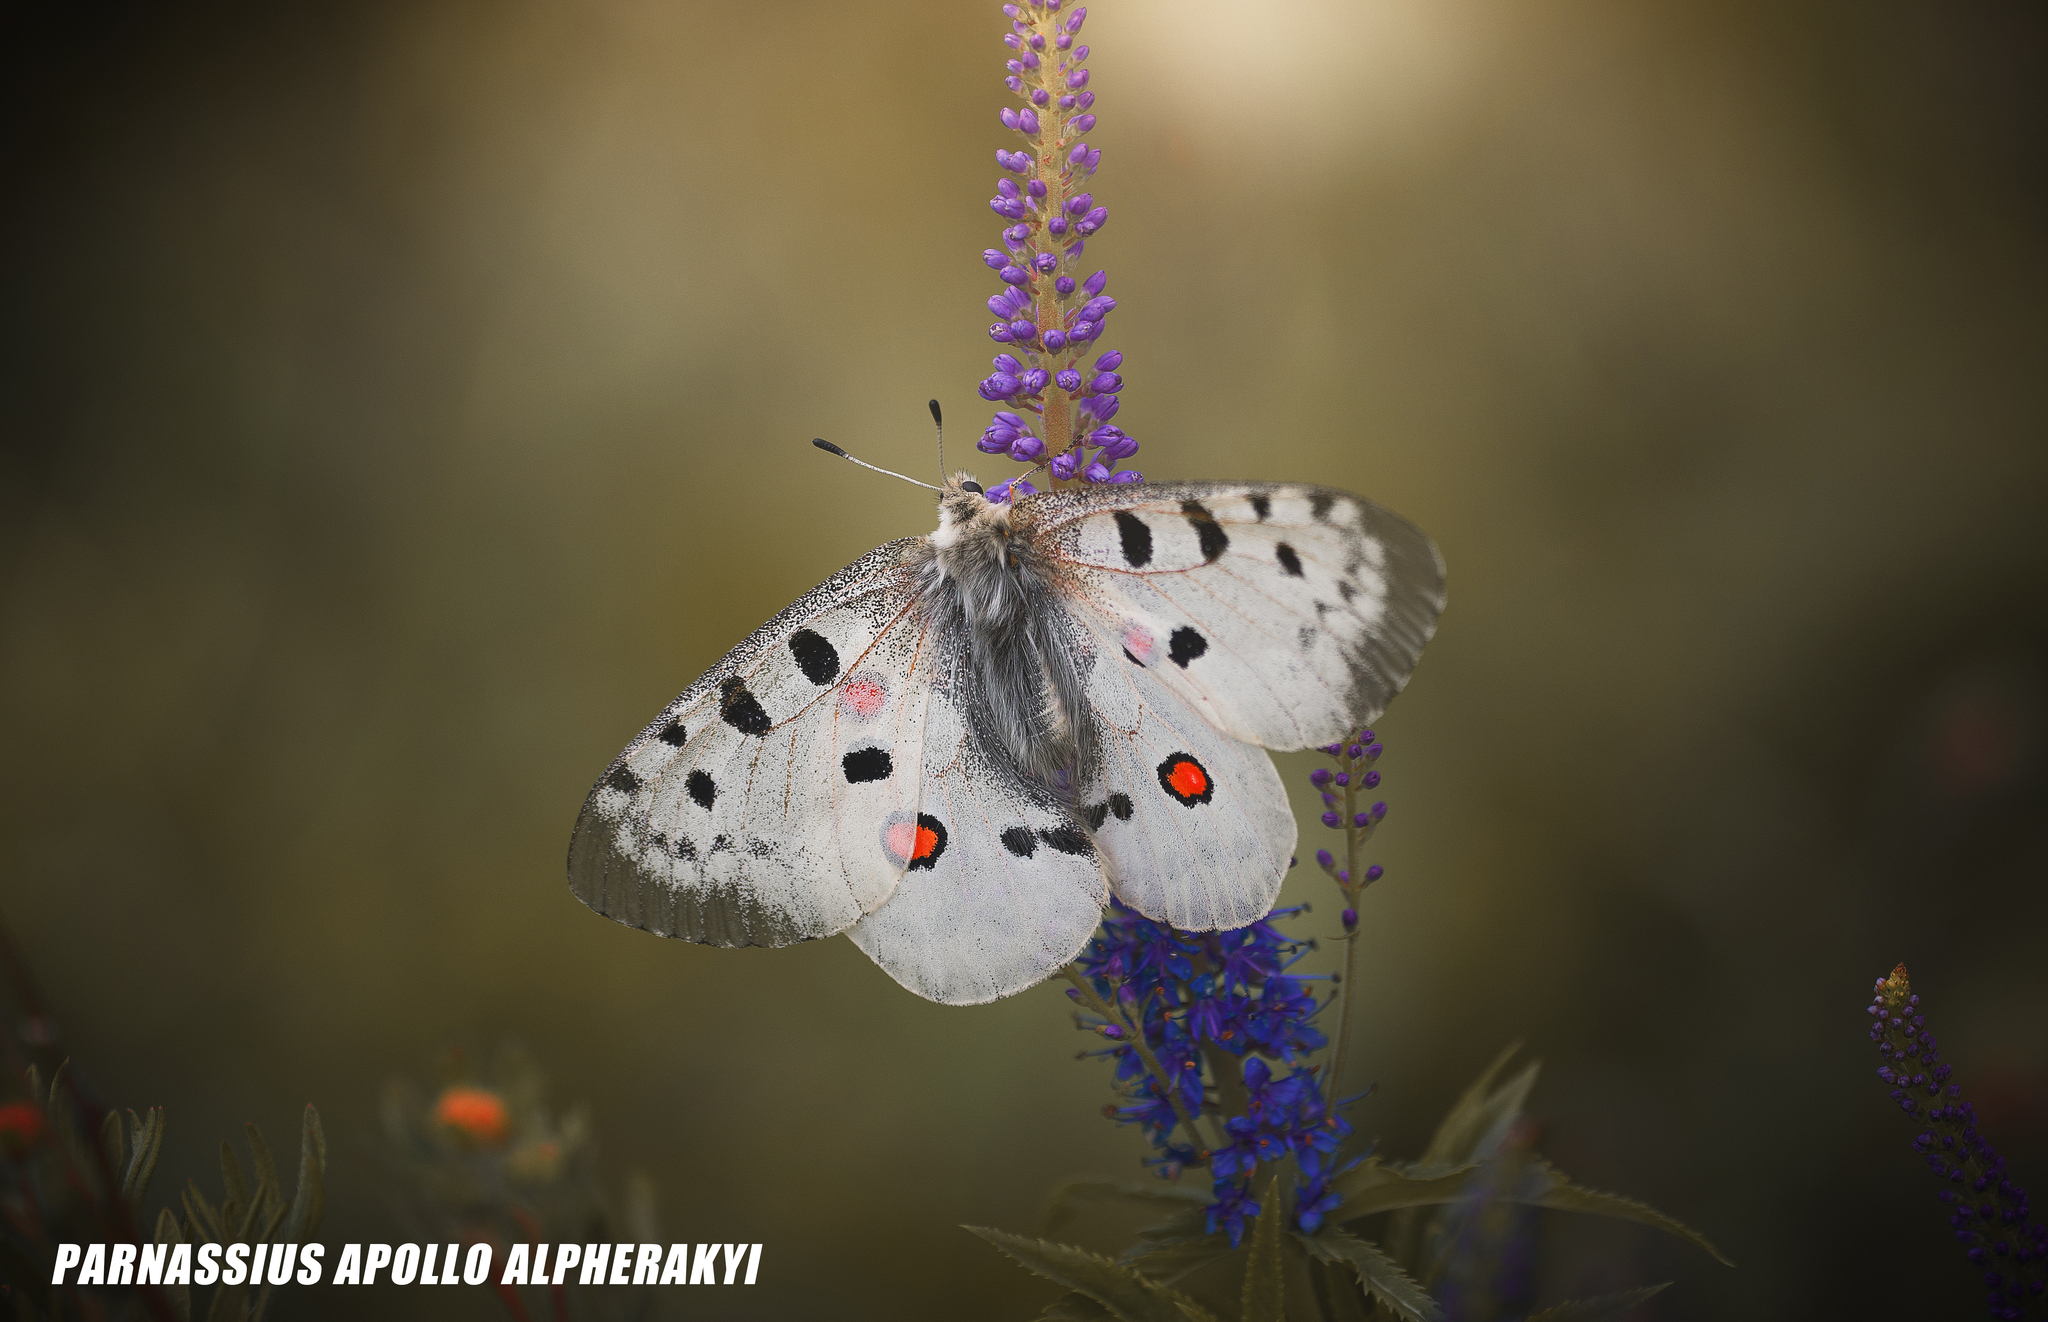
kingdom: Animalia
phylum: Arthropoda
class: Insecta
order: Lepidoptera
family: Papilionidae
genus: Parnassius
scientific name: Parnassius apollo
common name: Apollo
